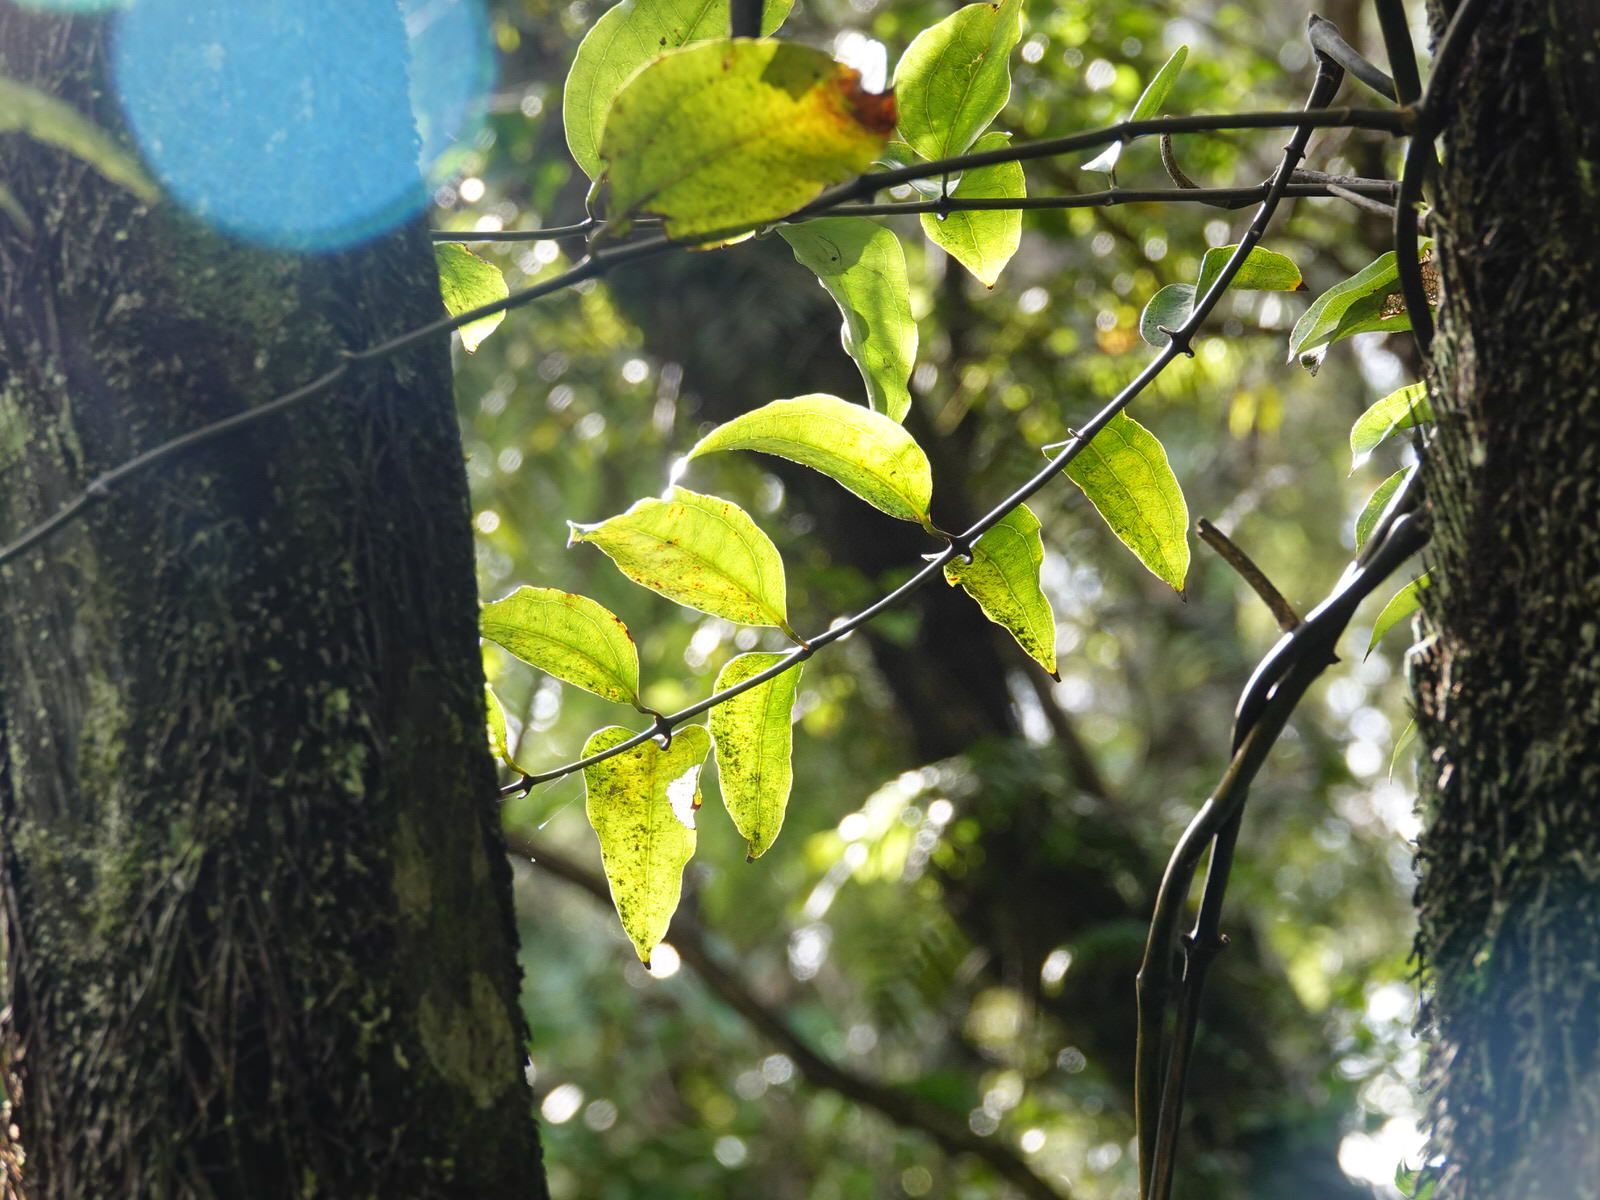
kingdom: Plantae
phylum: Tracheophyta
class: Liliopsida
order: Liliales
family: Ripogonaceae
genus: Ripogonum
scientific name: Ripogonum scandens
